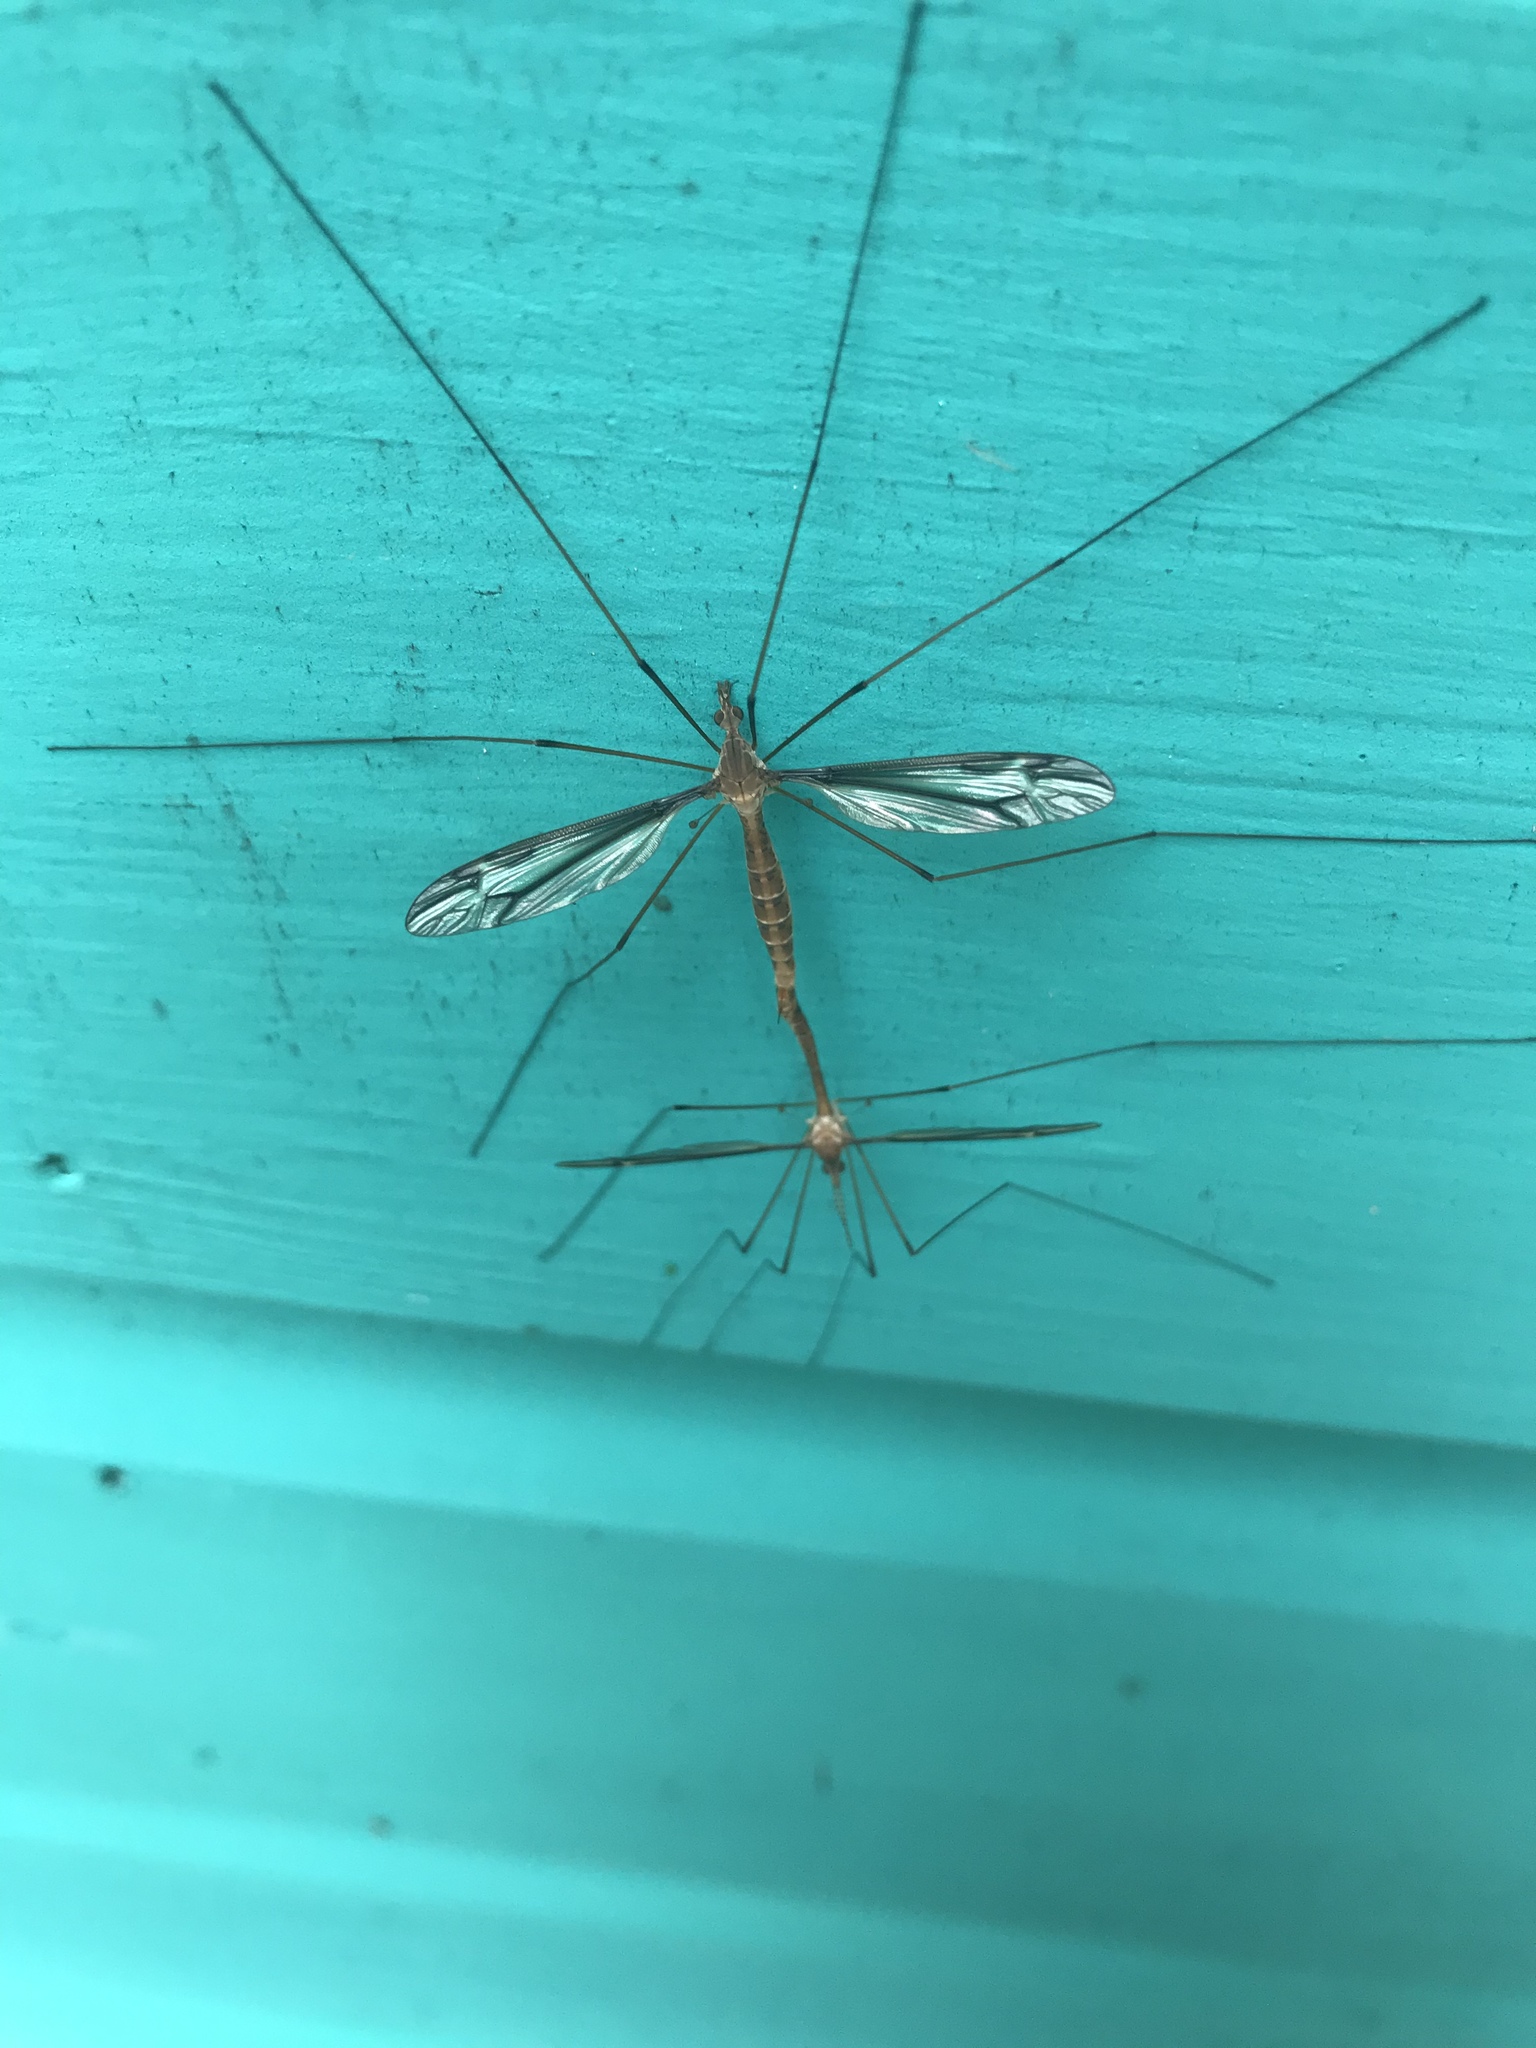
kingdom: Animalia
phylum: Arthropoda
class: Insecta
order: Diptera
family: Tipulidae
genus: Tipula
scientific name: Tipula furca
